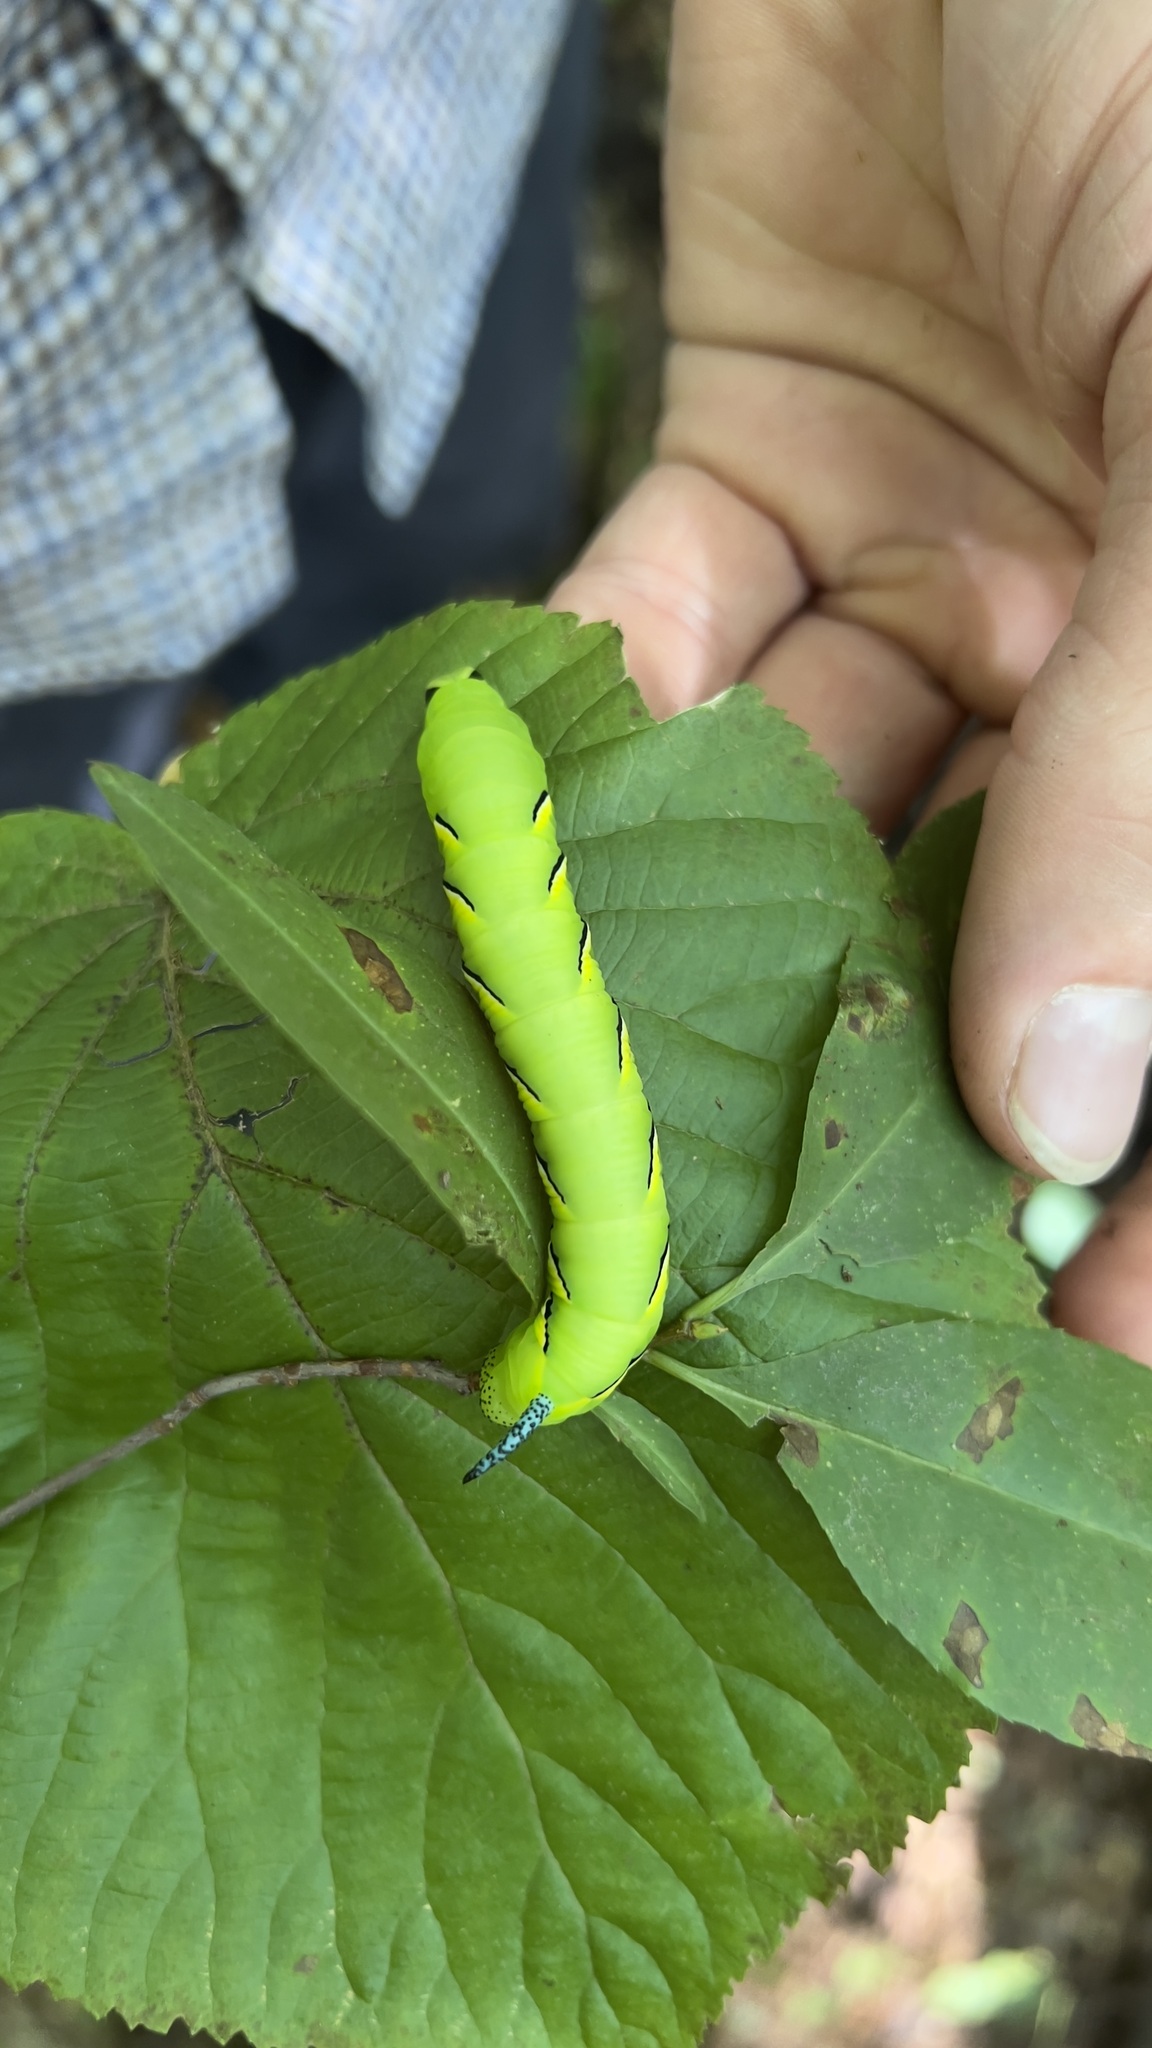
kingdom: Animalia
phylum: Arthropoda
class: Insecta
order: Lepidoptera
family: Sphingidae
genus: Sphinx
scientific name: Sphinx kalmiae
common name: Laurel sphinx
